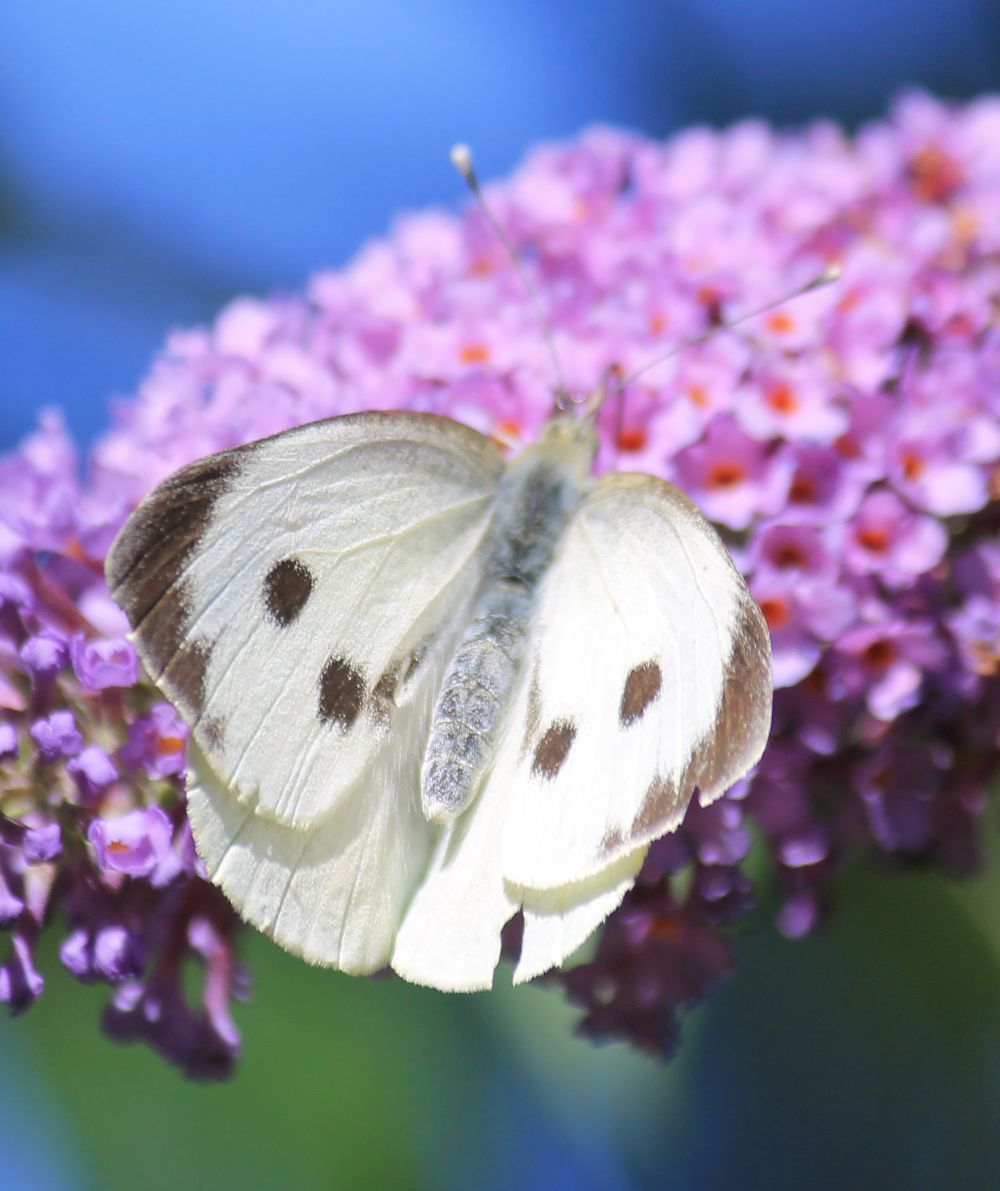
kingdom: Animalia
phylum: Arthropoda
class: Insecta
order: Lepidoptera
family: Pieridae
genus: Pieris
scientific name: Pieris brassicae
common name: Large white
